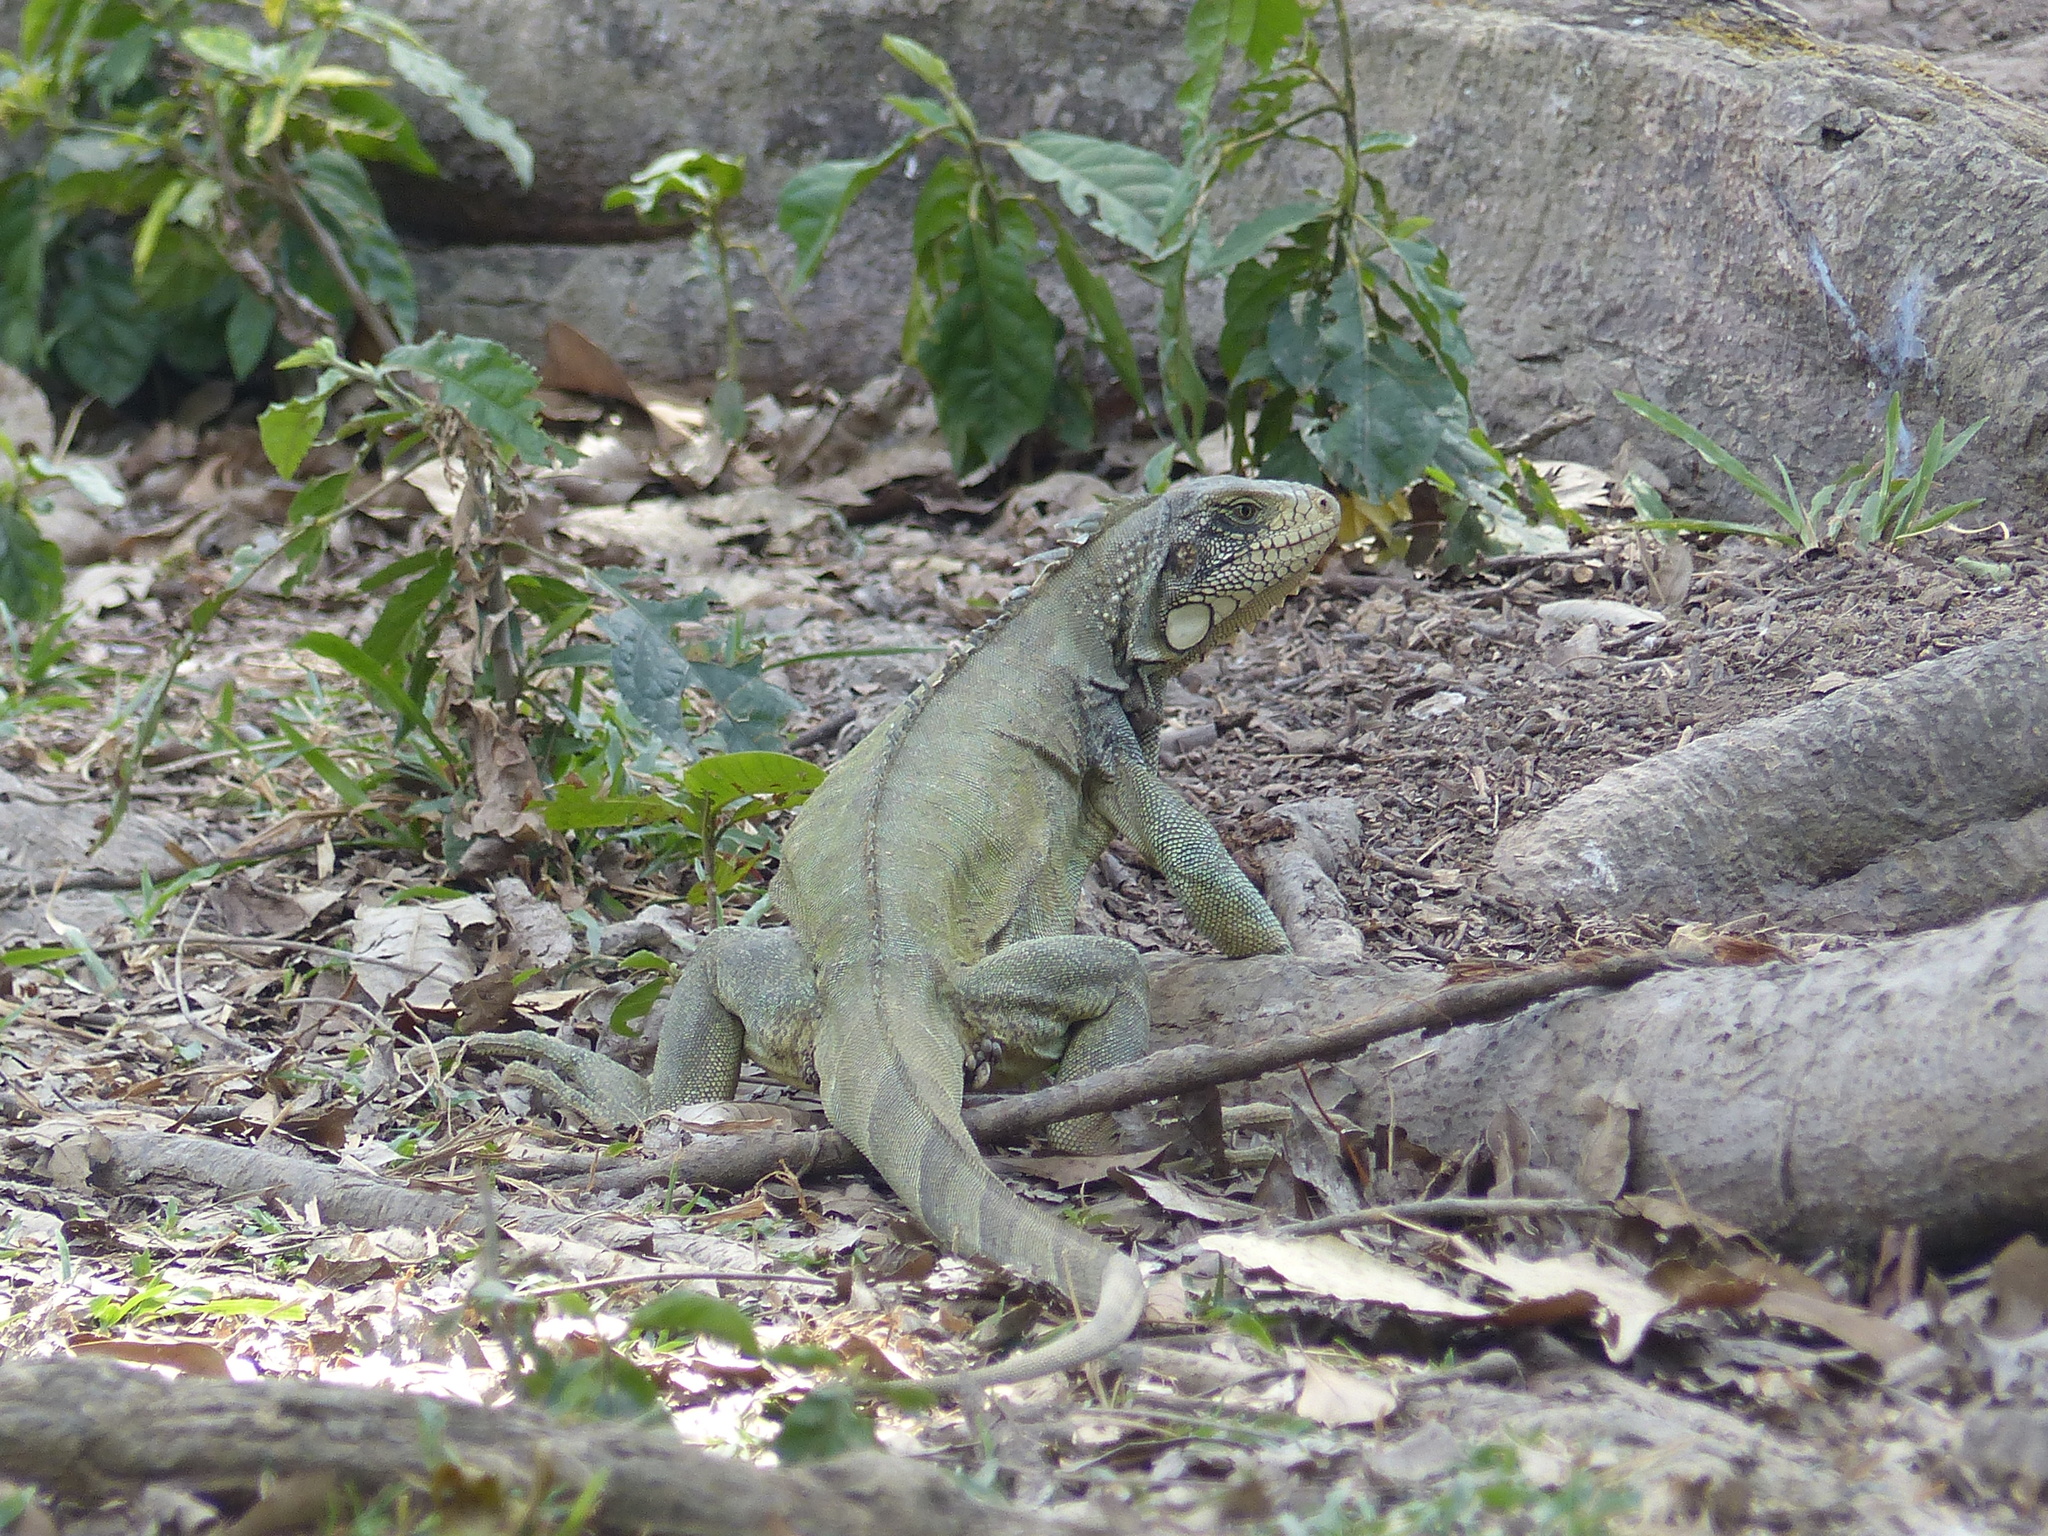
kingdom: Animalia
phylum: Chordata
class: Squamata
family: Iguanidae
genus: Iguana
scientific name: Iguana iguana
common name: Green iguana
